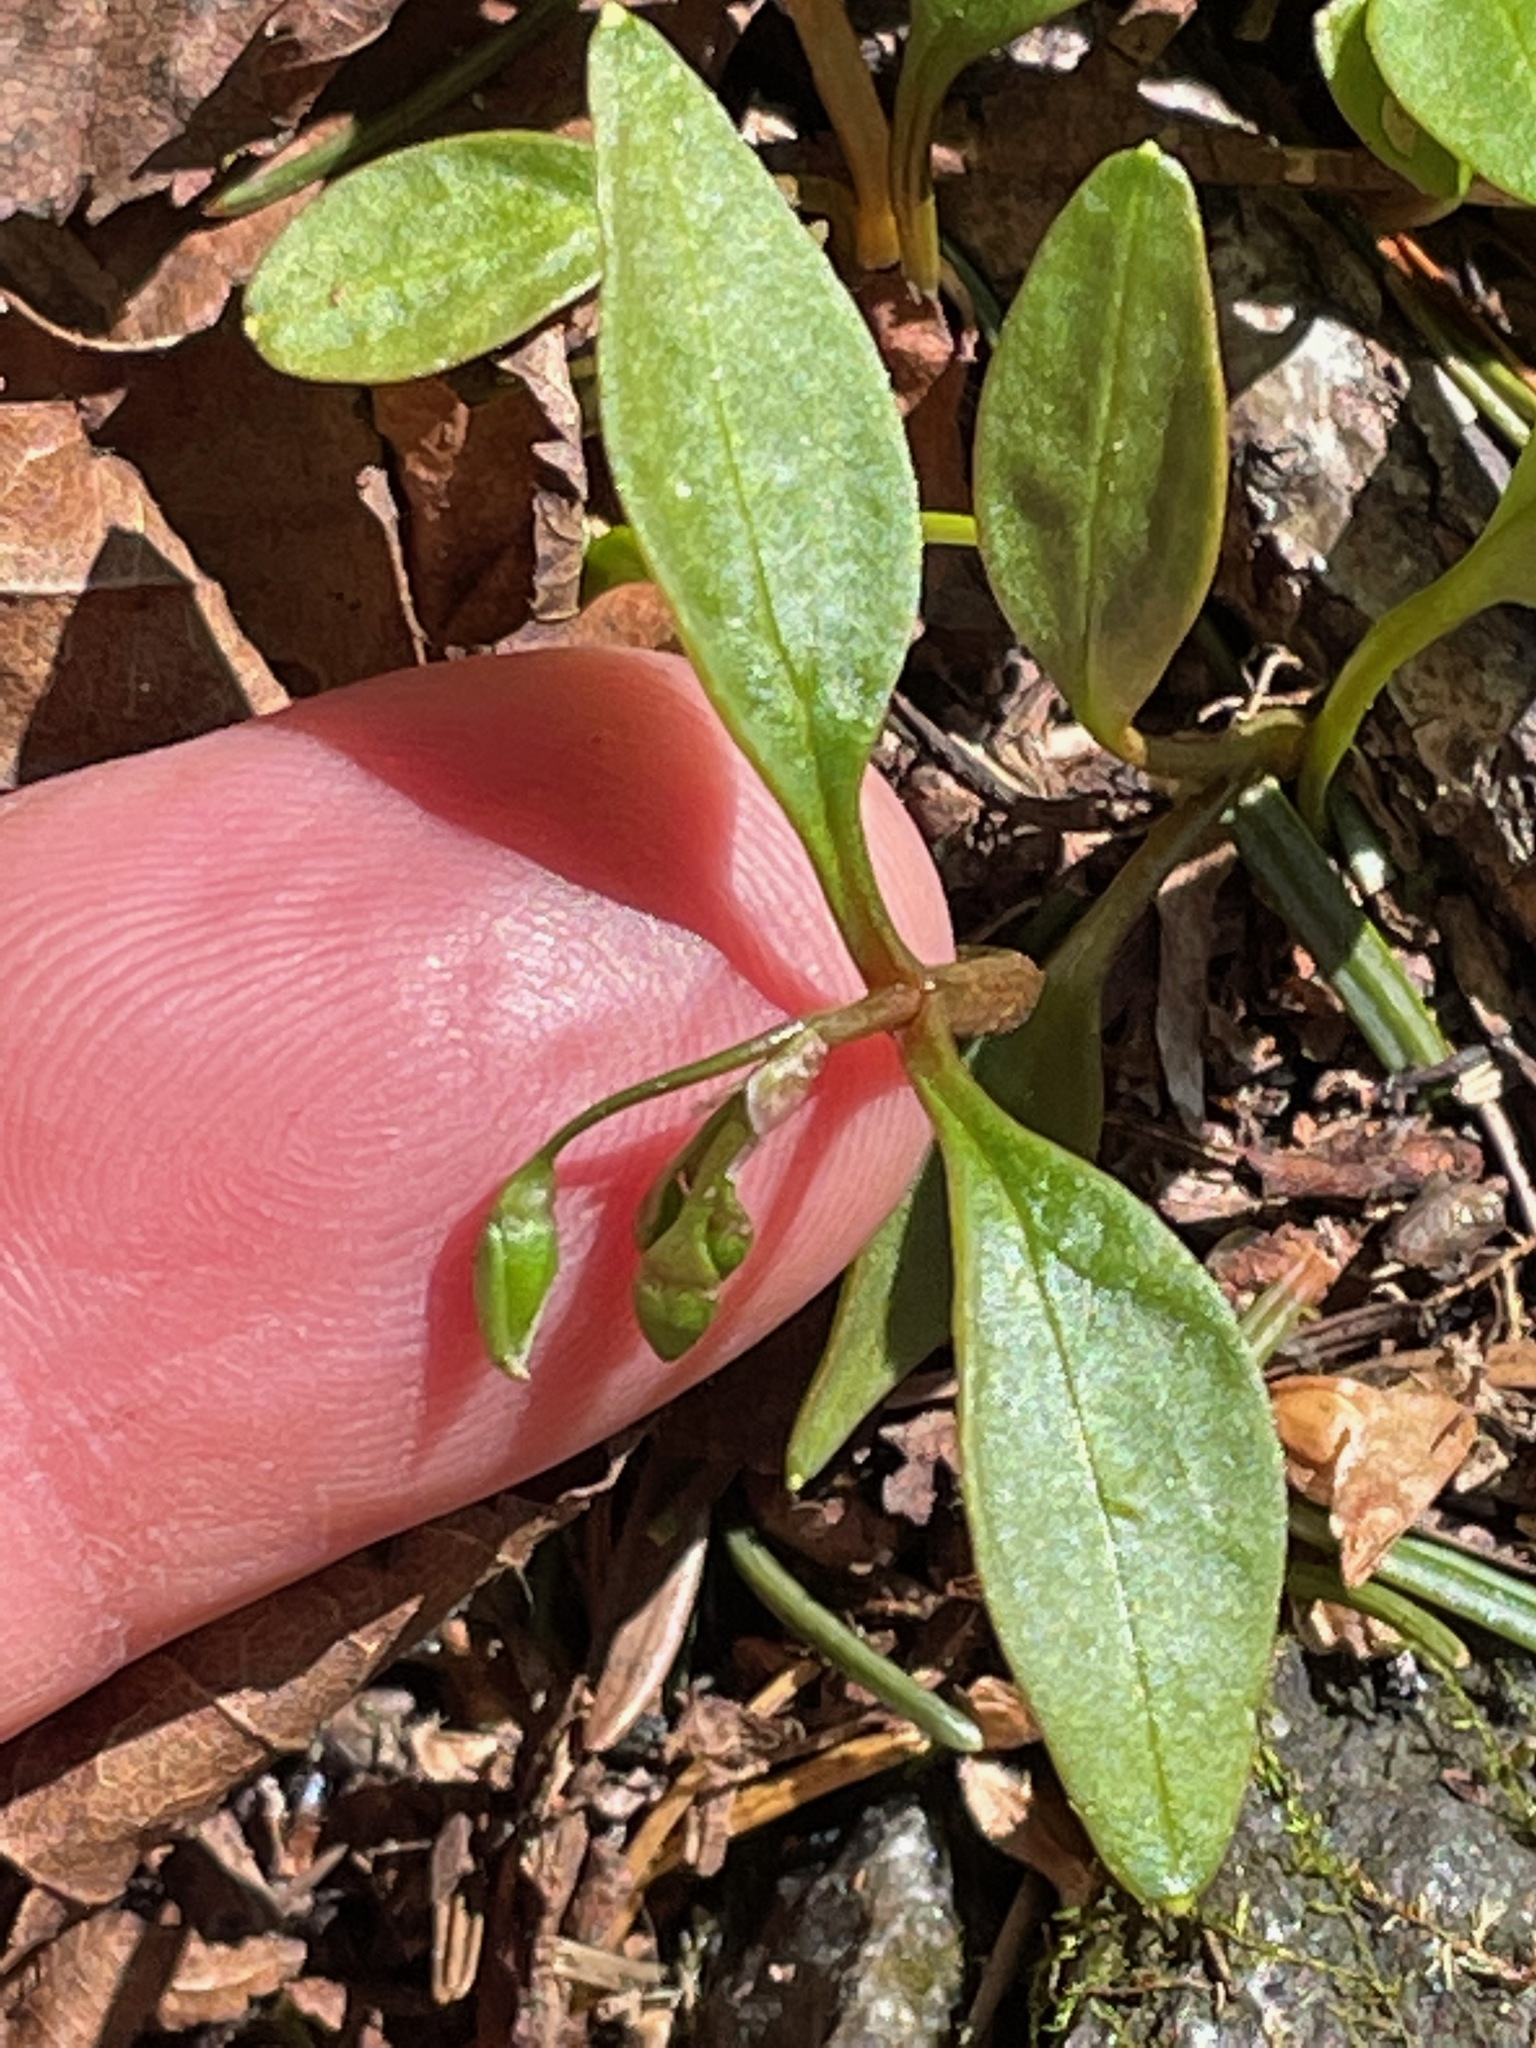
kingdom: Plantae
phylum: Tracheophyta
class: Magnoliopsida
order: Caryophyllales
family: Montiaceae
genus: Claytonia
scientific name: Claytonia caroliniana
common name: Carolina spring beauty
